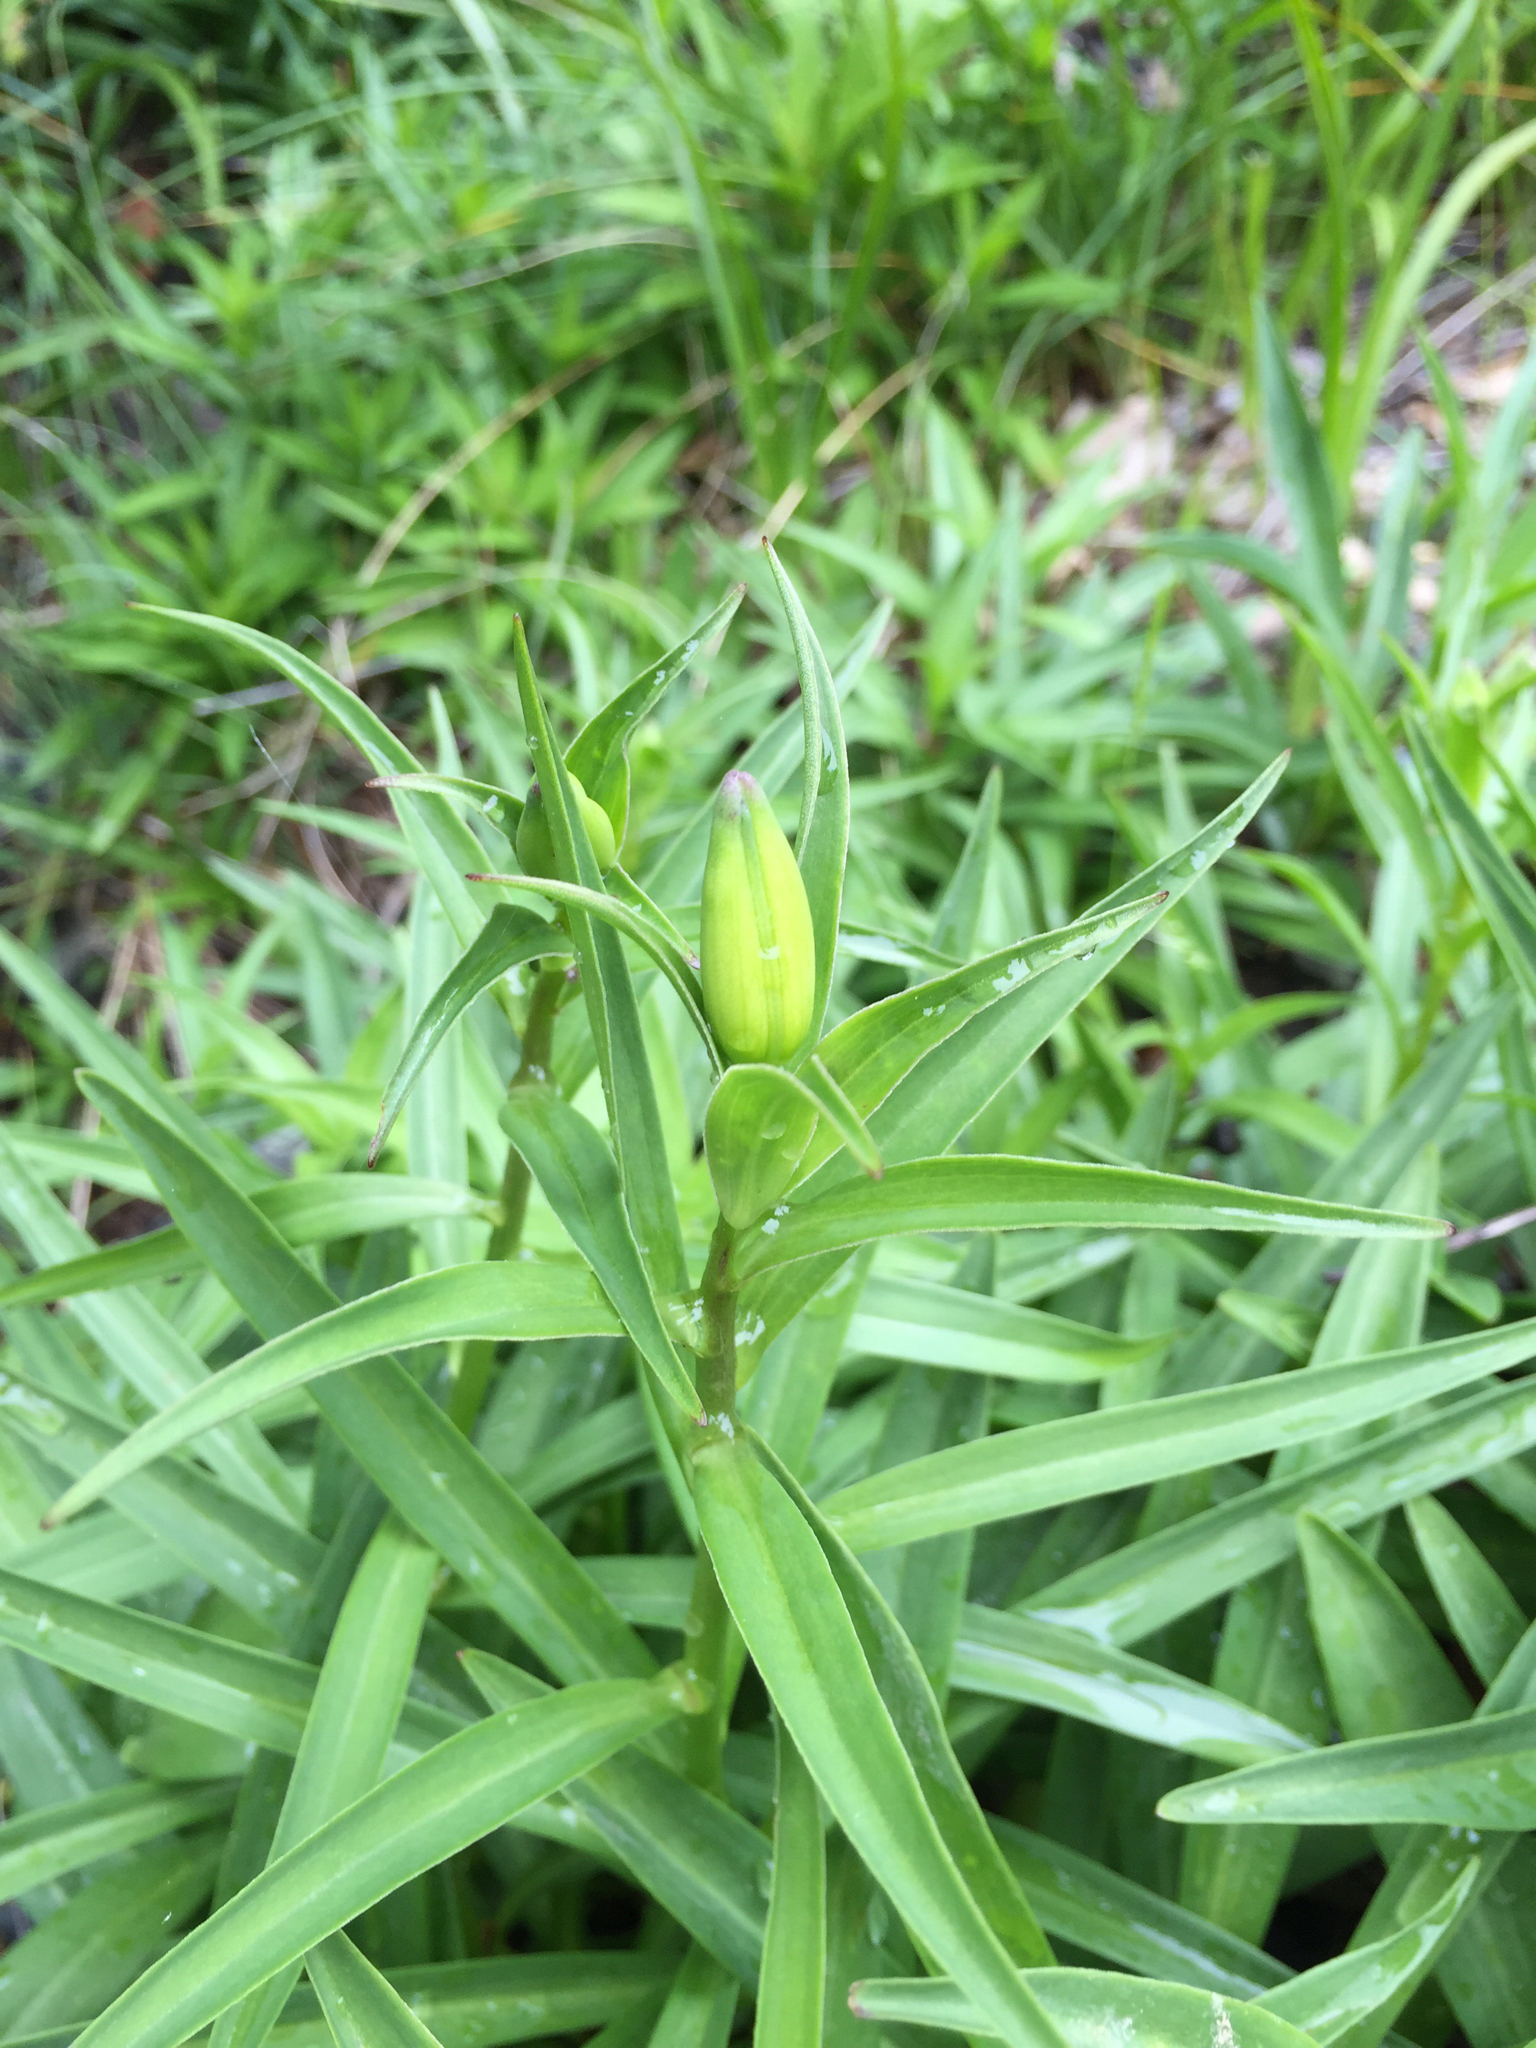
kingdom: Plantae
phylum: Tracheophyta
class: Liliopsida
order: Liliales
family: Liliaceae
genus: Lilium
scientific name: Lilium pardalinum
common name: Panther lily
